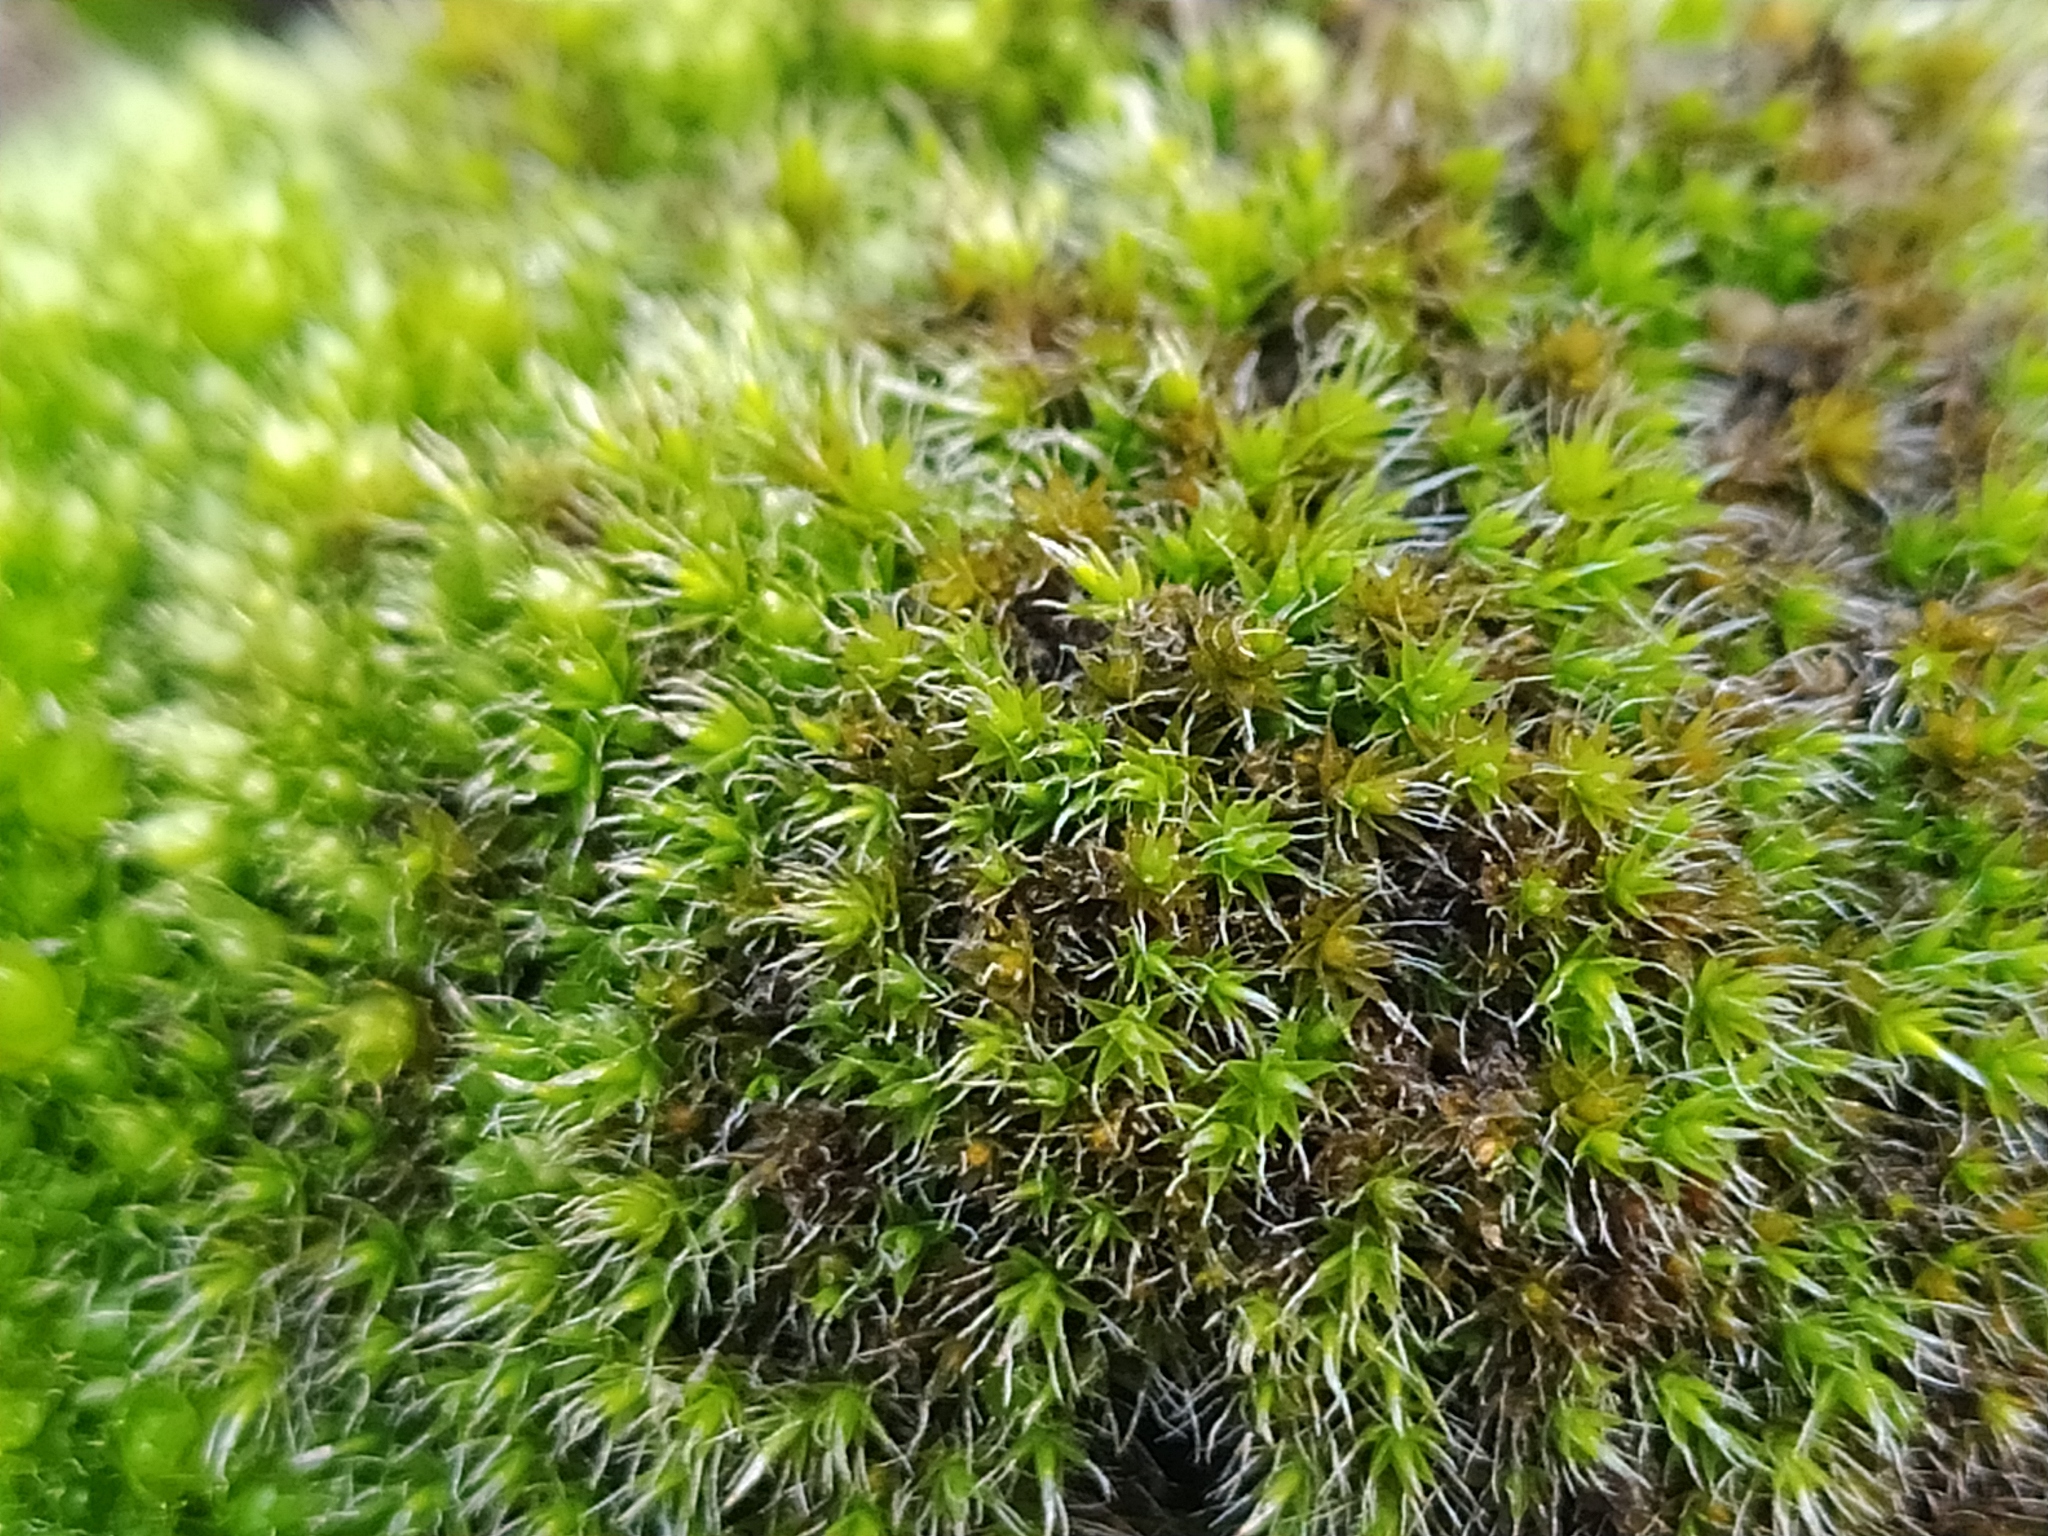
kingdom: Plantae
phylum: Bryophyta
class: Bryopsida
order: Grimmiales
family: Grimmiaceae
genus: Grimmia
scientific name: Grimmia laevigata
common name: Hoary grimmia
